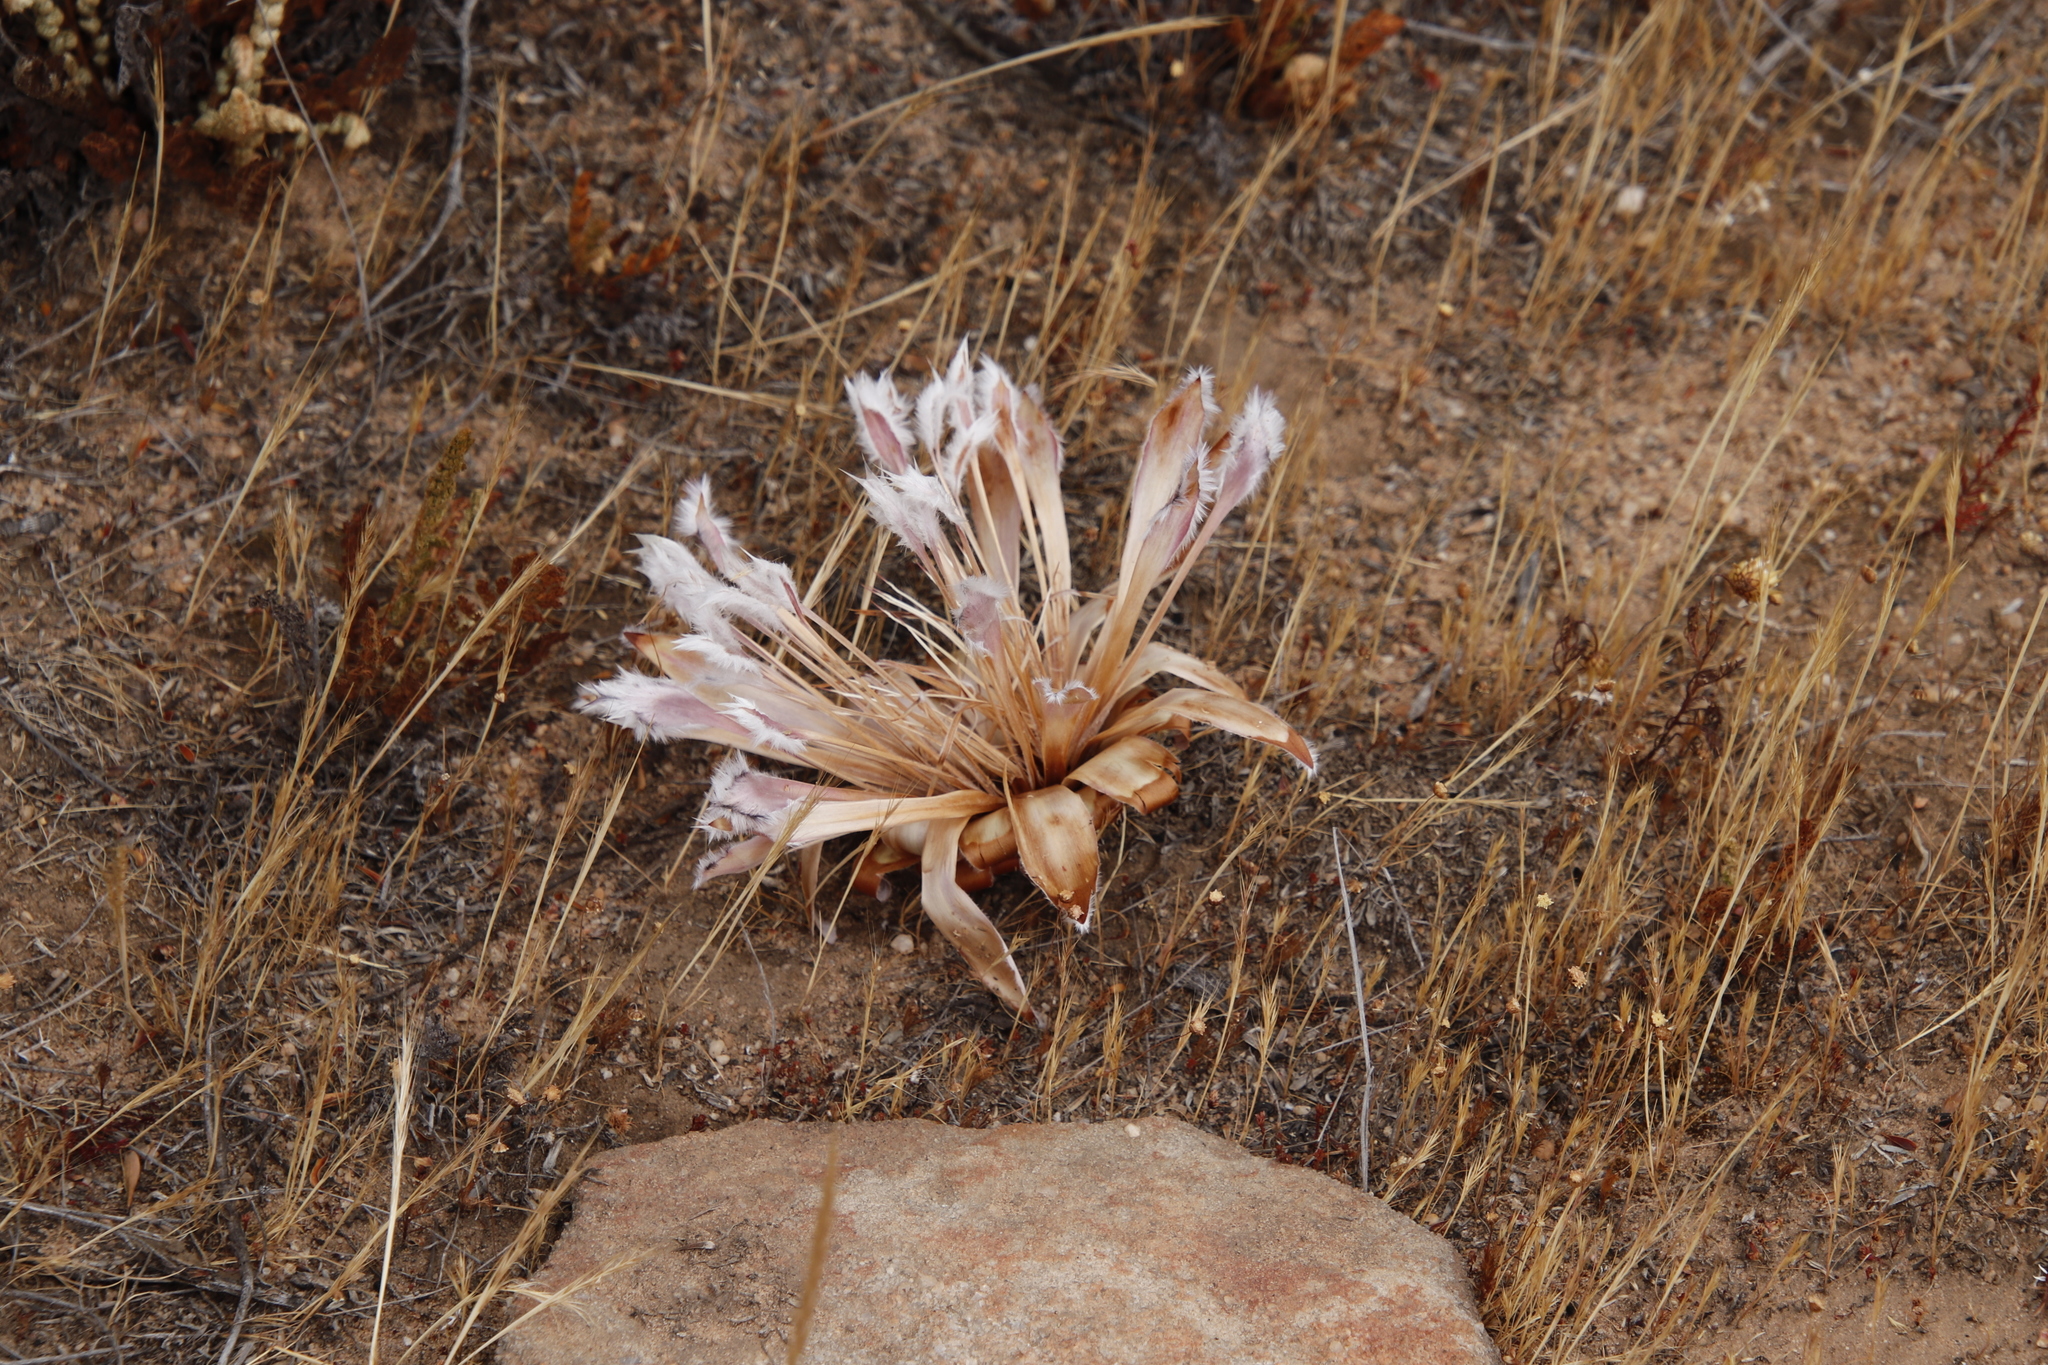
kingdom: Plantae
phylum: Tracheophyta
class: Magnoliopsida
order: Proteales
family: Proteaceae
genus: Protea
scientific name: Protea laurifolia
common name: Grey-leaf sugarbsh
